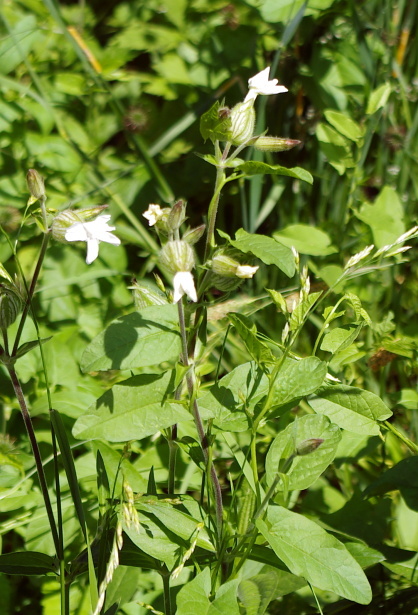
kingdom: Plantae
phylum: Tracheophyta
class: Magnoliopsida
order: Caryophyllales
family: Caryophyllaceae
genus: Silene
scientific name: Silene latifolia
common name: White campion
